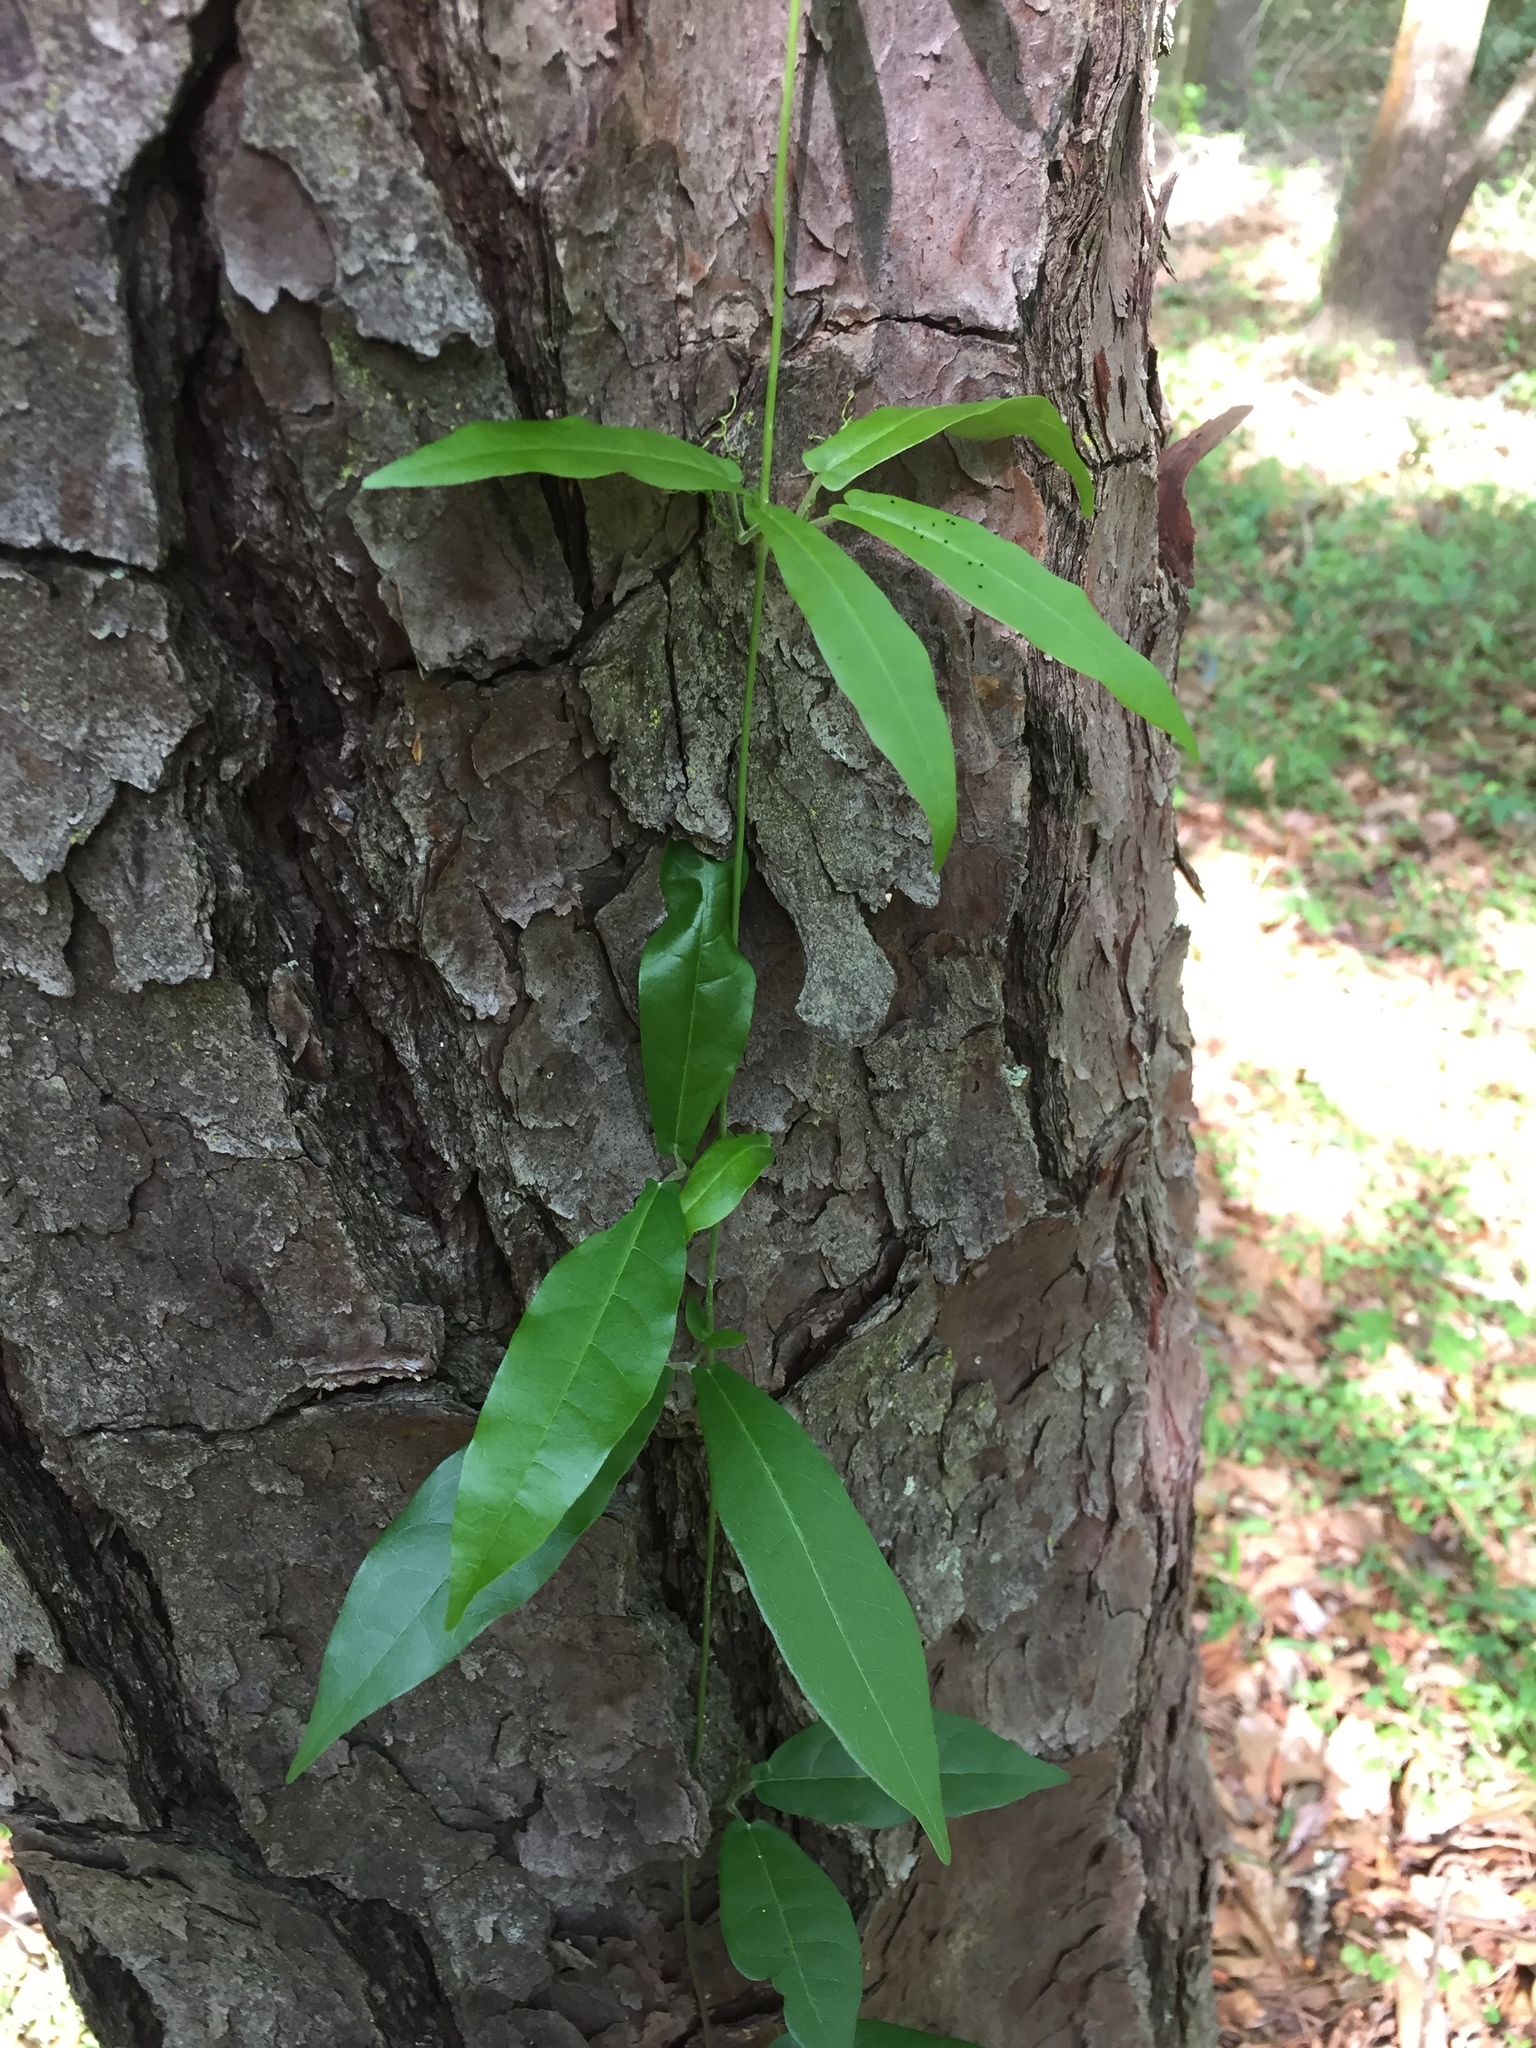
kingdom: Plantae
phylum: Tracheophyta
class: Magnoliopsida
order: Lamiales
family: Bignoniaceae
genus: Bignonia
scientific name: Bignonia capreolata
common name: Crossvine
